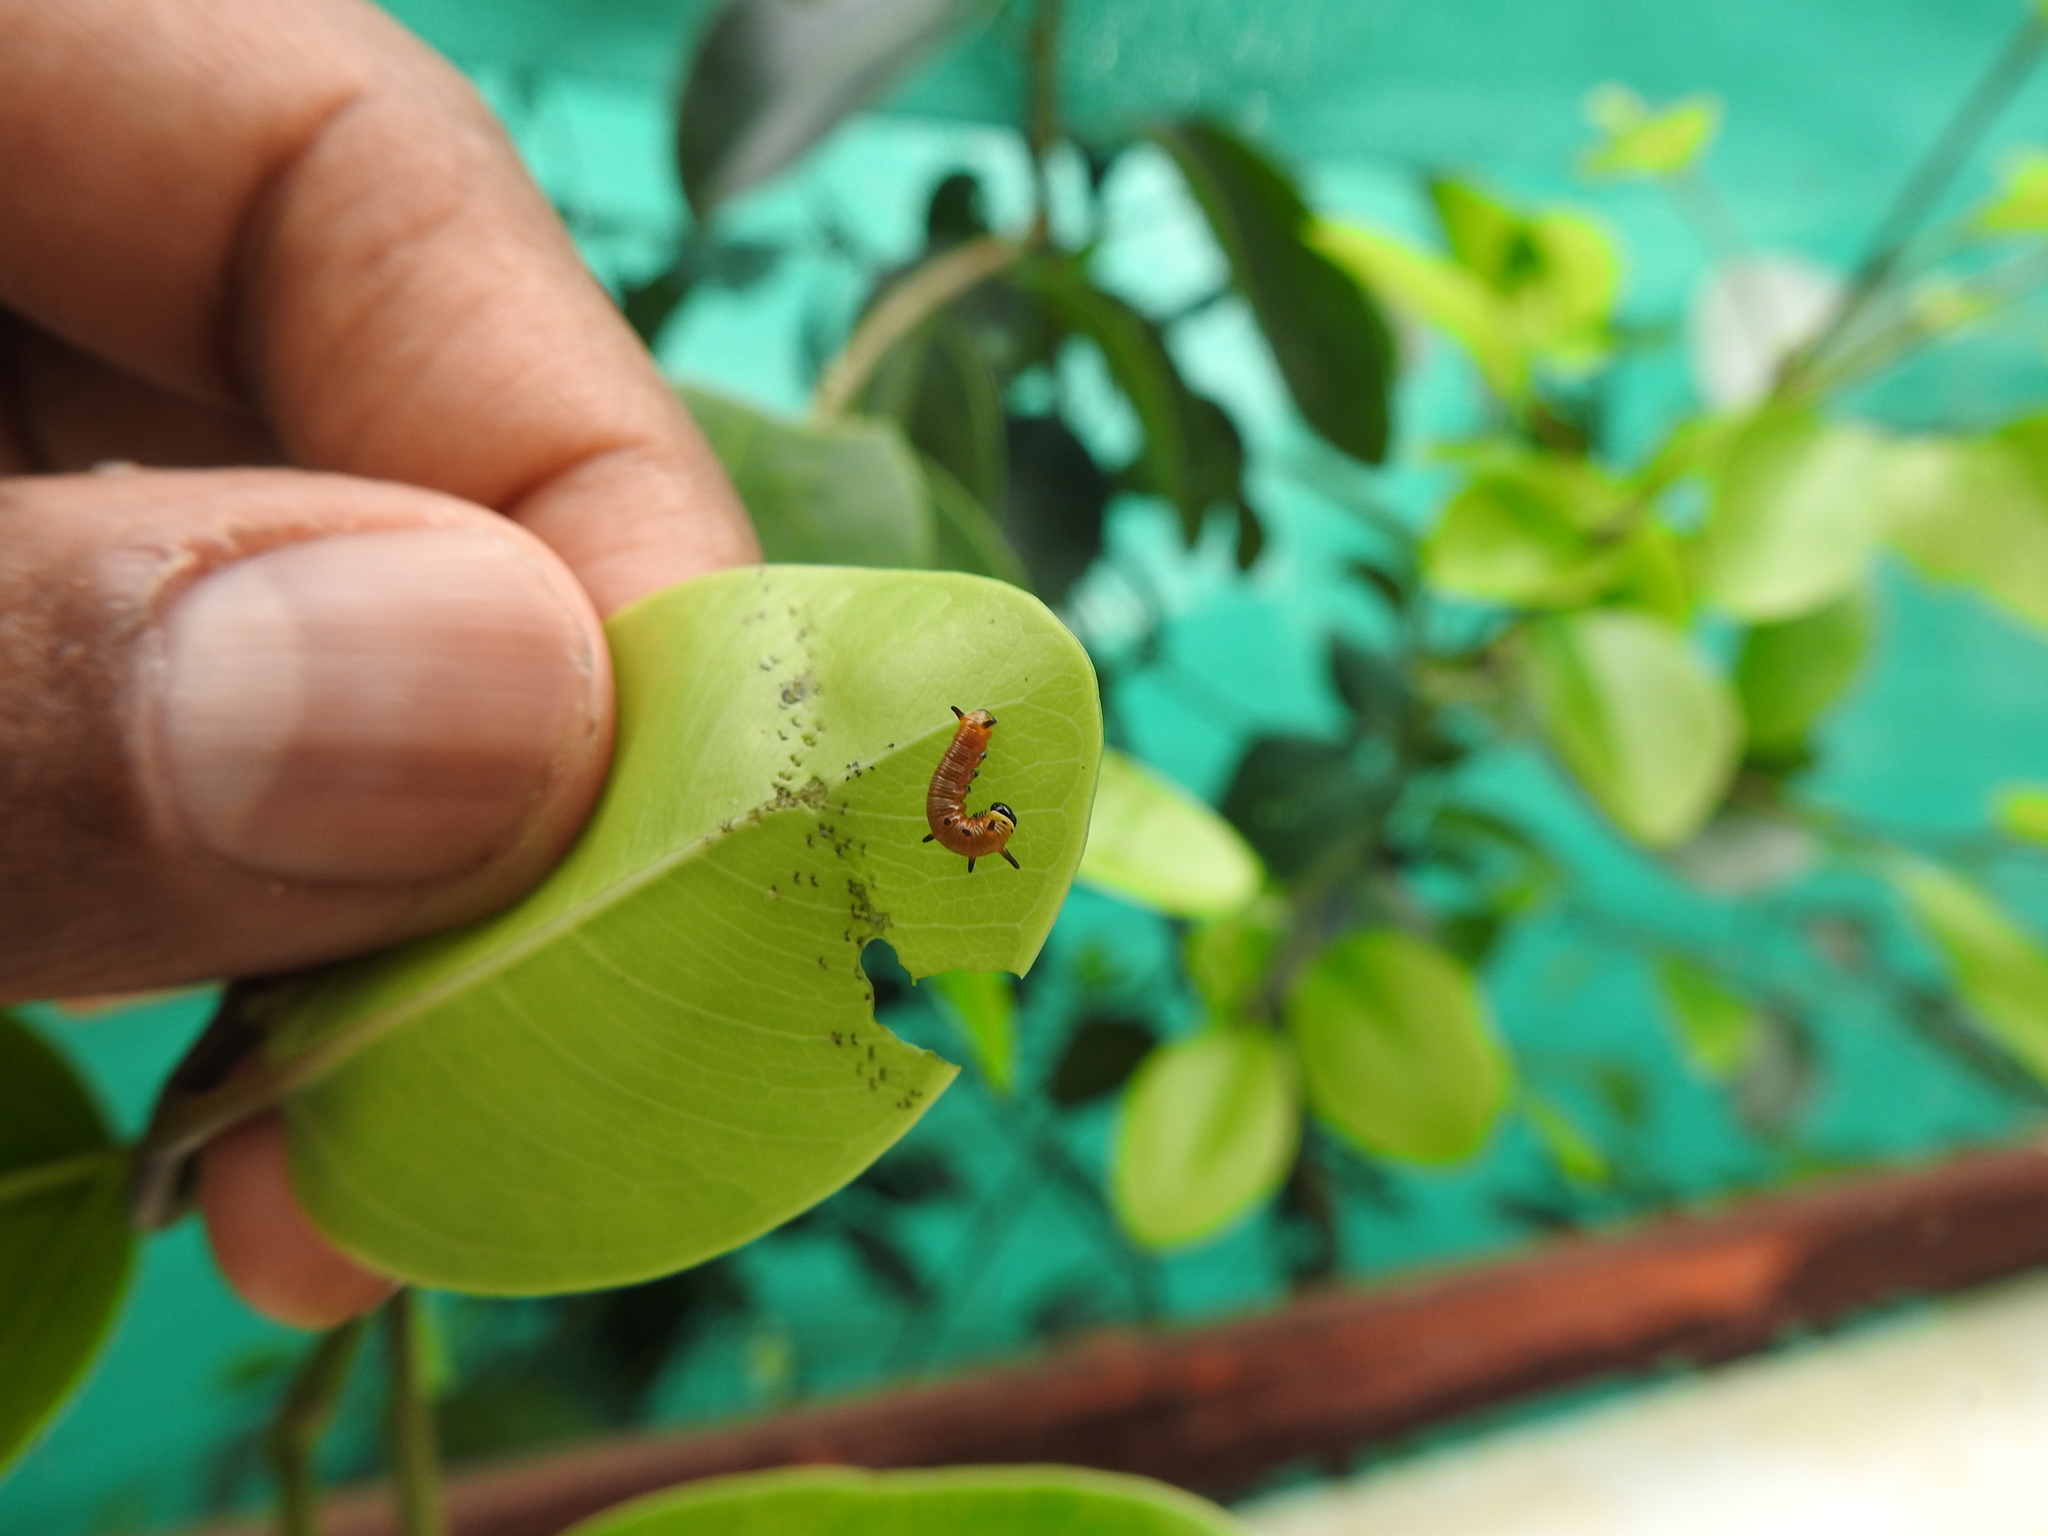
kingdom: Animalia
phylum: Arthropoda
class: Insecta
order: Lepidoptera
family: Nymphalidae
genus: Euploea
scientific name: Euploea core
